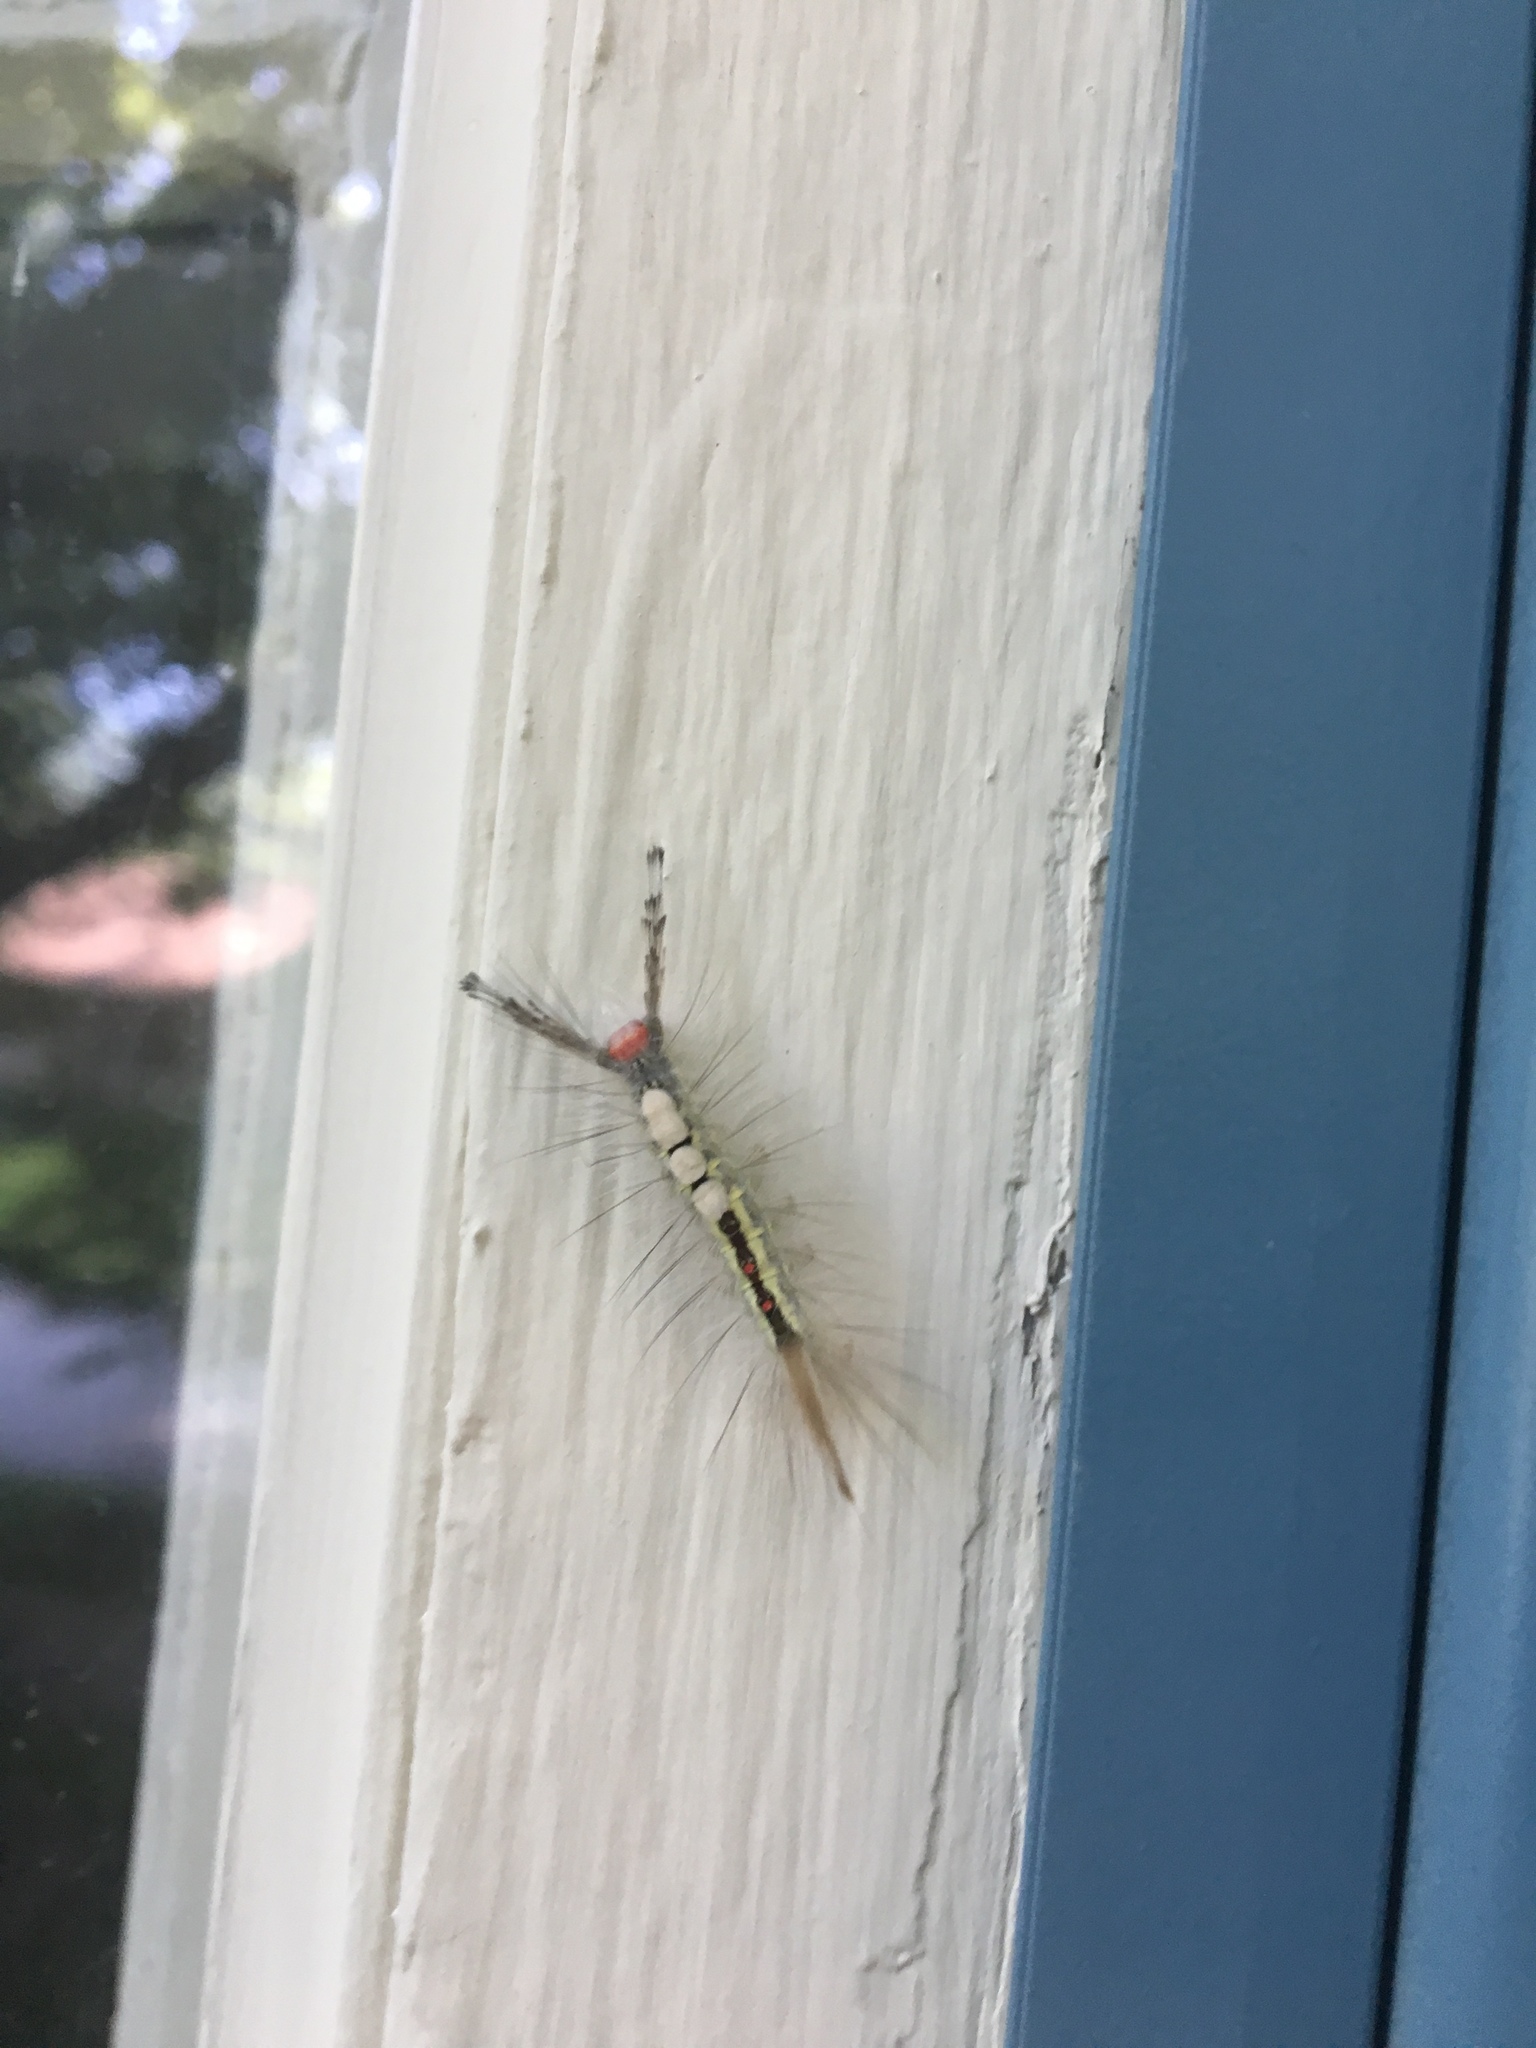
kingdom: Animalia
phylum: Arthropoda
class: Insecta
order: Lepidoptera
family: Erebidae
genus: Orgyia
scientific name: Orgyia leucostigma
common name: White-marked tussock moth
